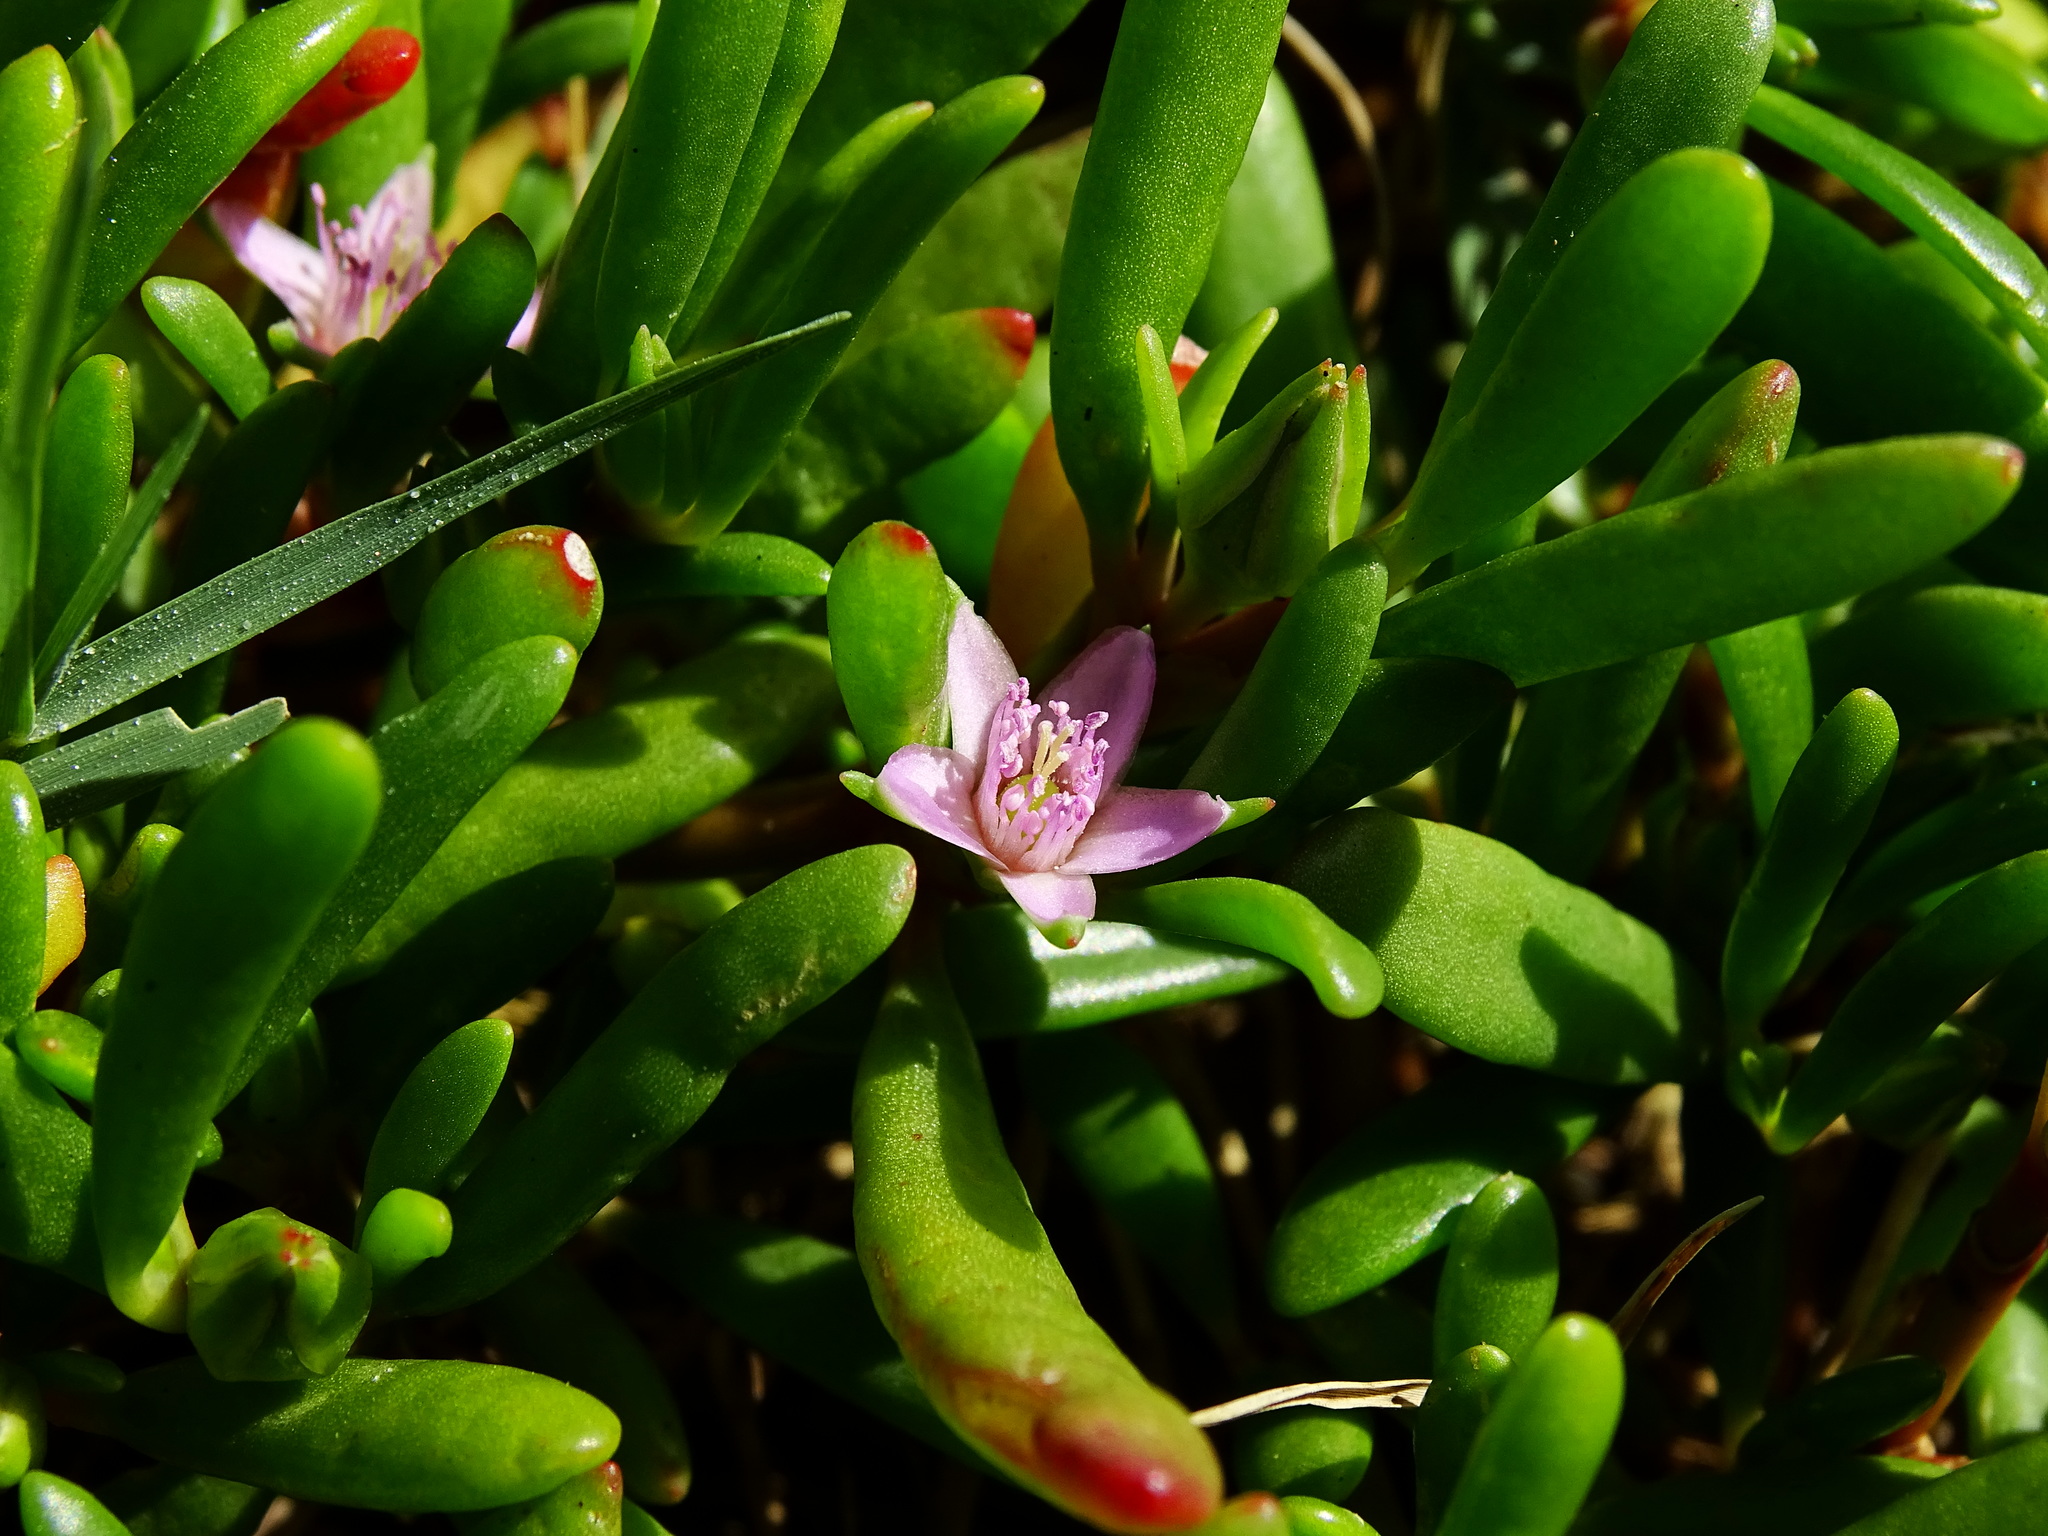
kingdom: Plantae
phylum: Tracheophyta
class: Magnoliopsida
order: Caryophyllales
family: Aizoaceae
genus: Sesuvium
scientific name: Sesuvium portulacastrum
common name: Sea-purslane
